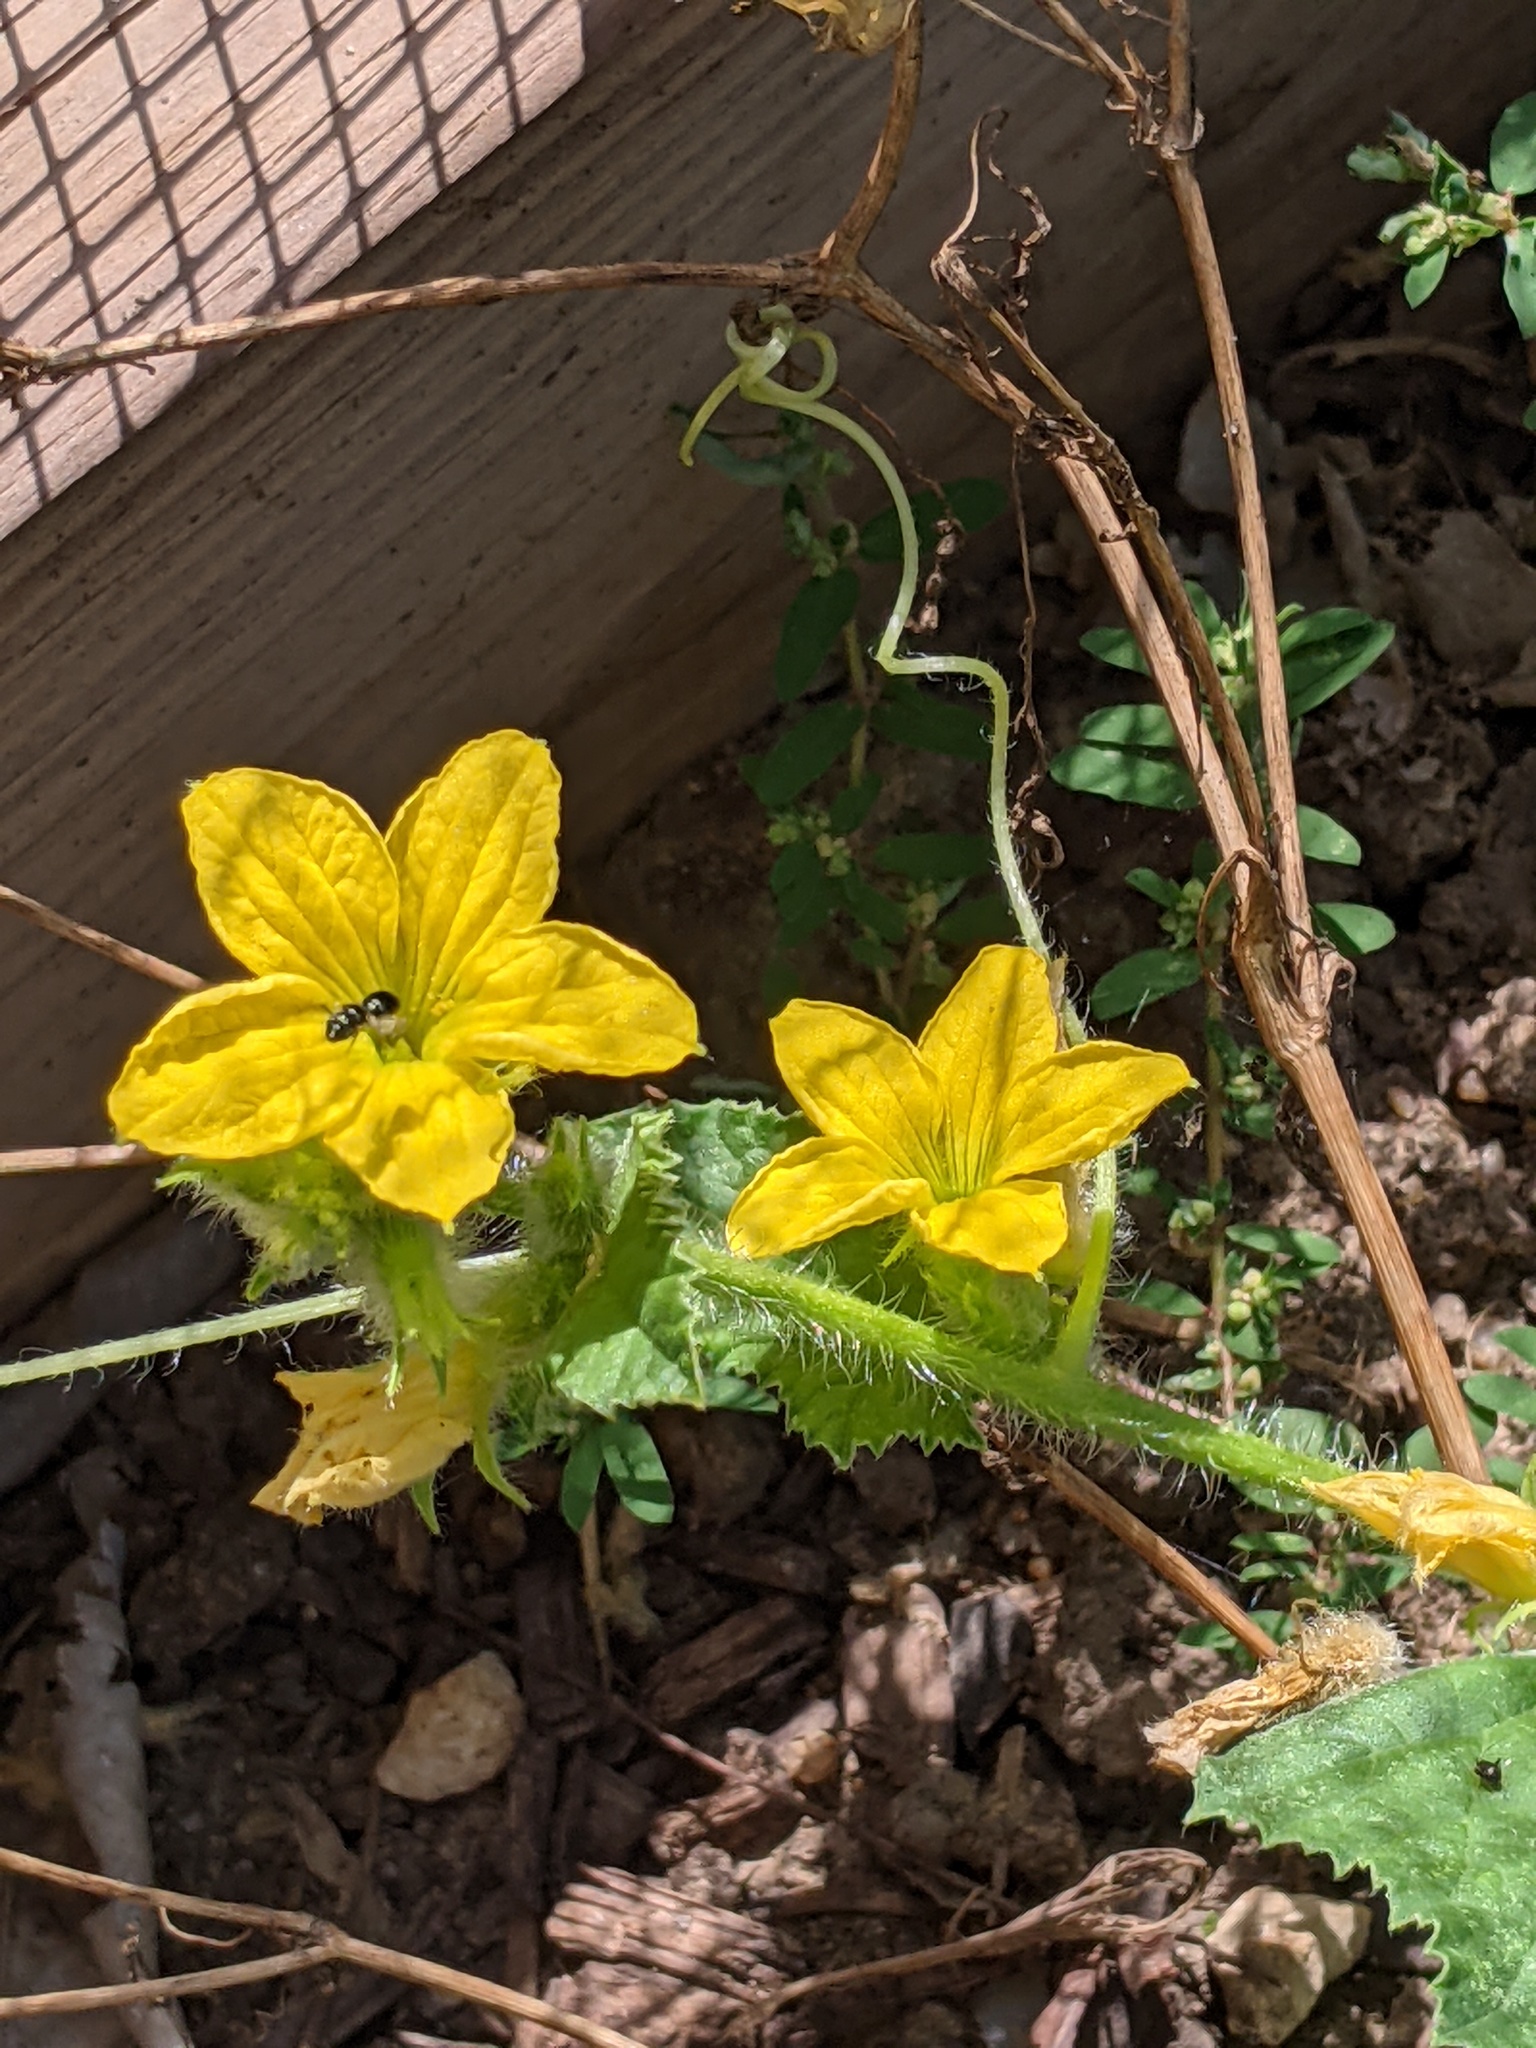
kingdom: Animalia
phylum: Arthropoda
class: Insecta
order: Hymenoptera
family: Apidae
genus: Zadontomerus
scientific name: Zadontomerus
